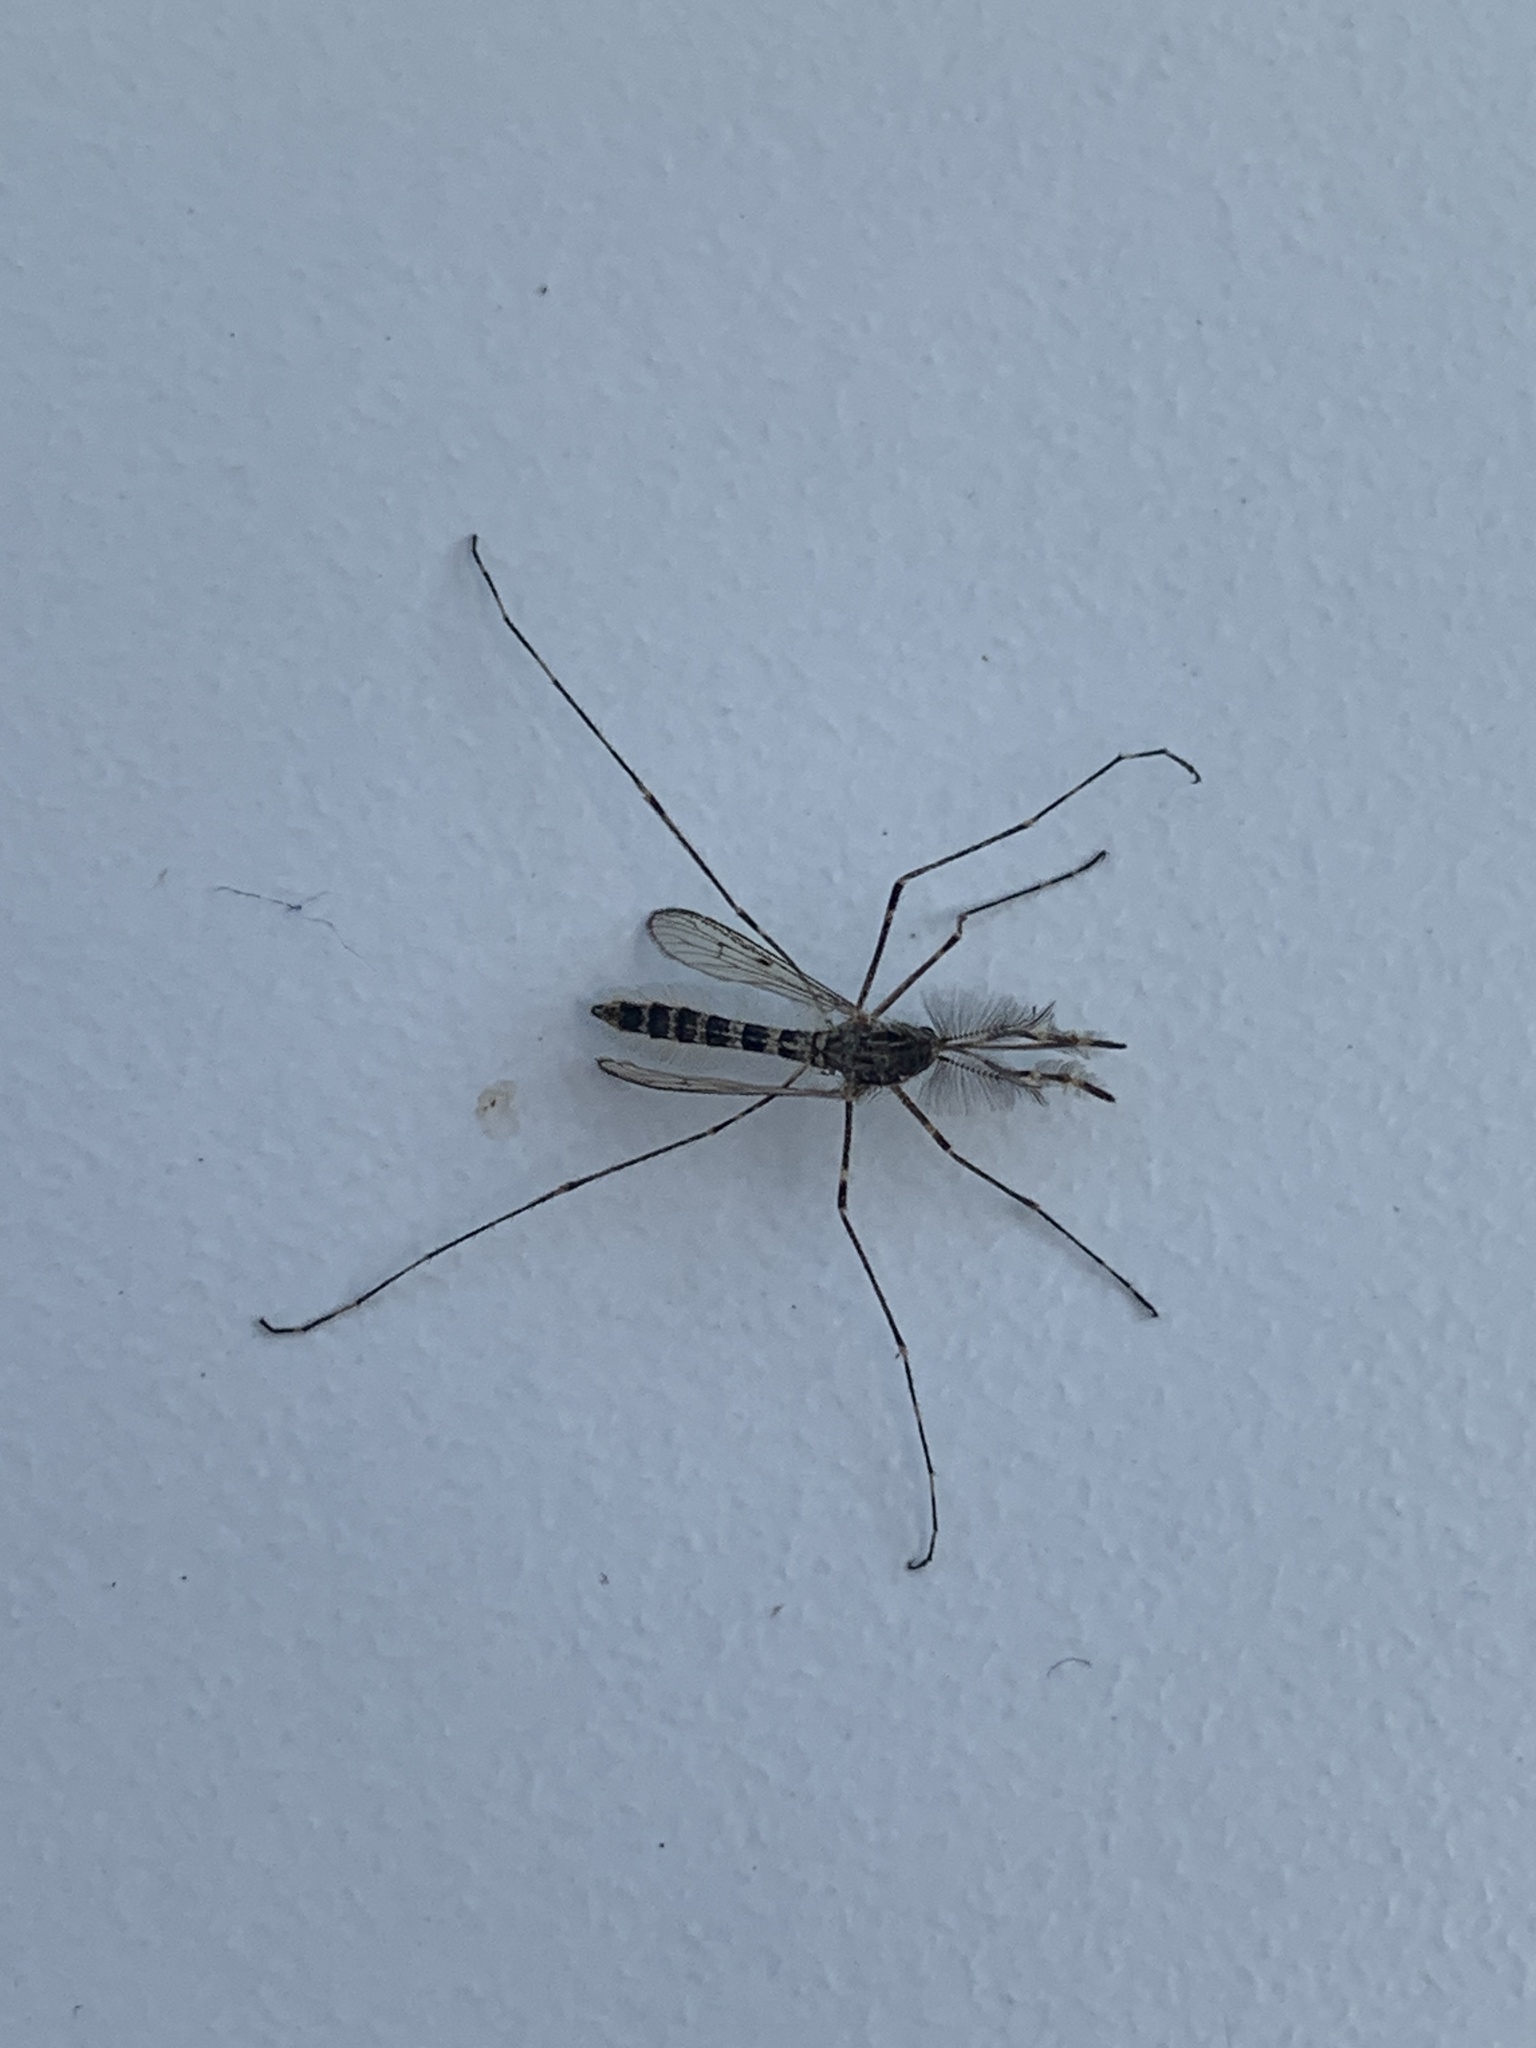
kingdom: Animalia
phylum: Arthropoda
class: Insecta
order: Diptera
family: Culicidae
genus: Culiseta
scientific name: Culiseta annulata
